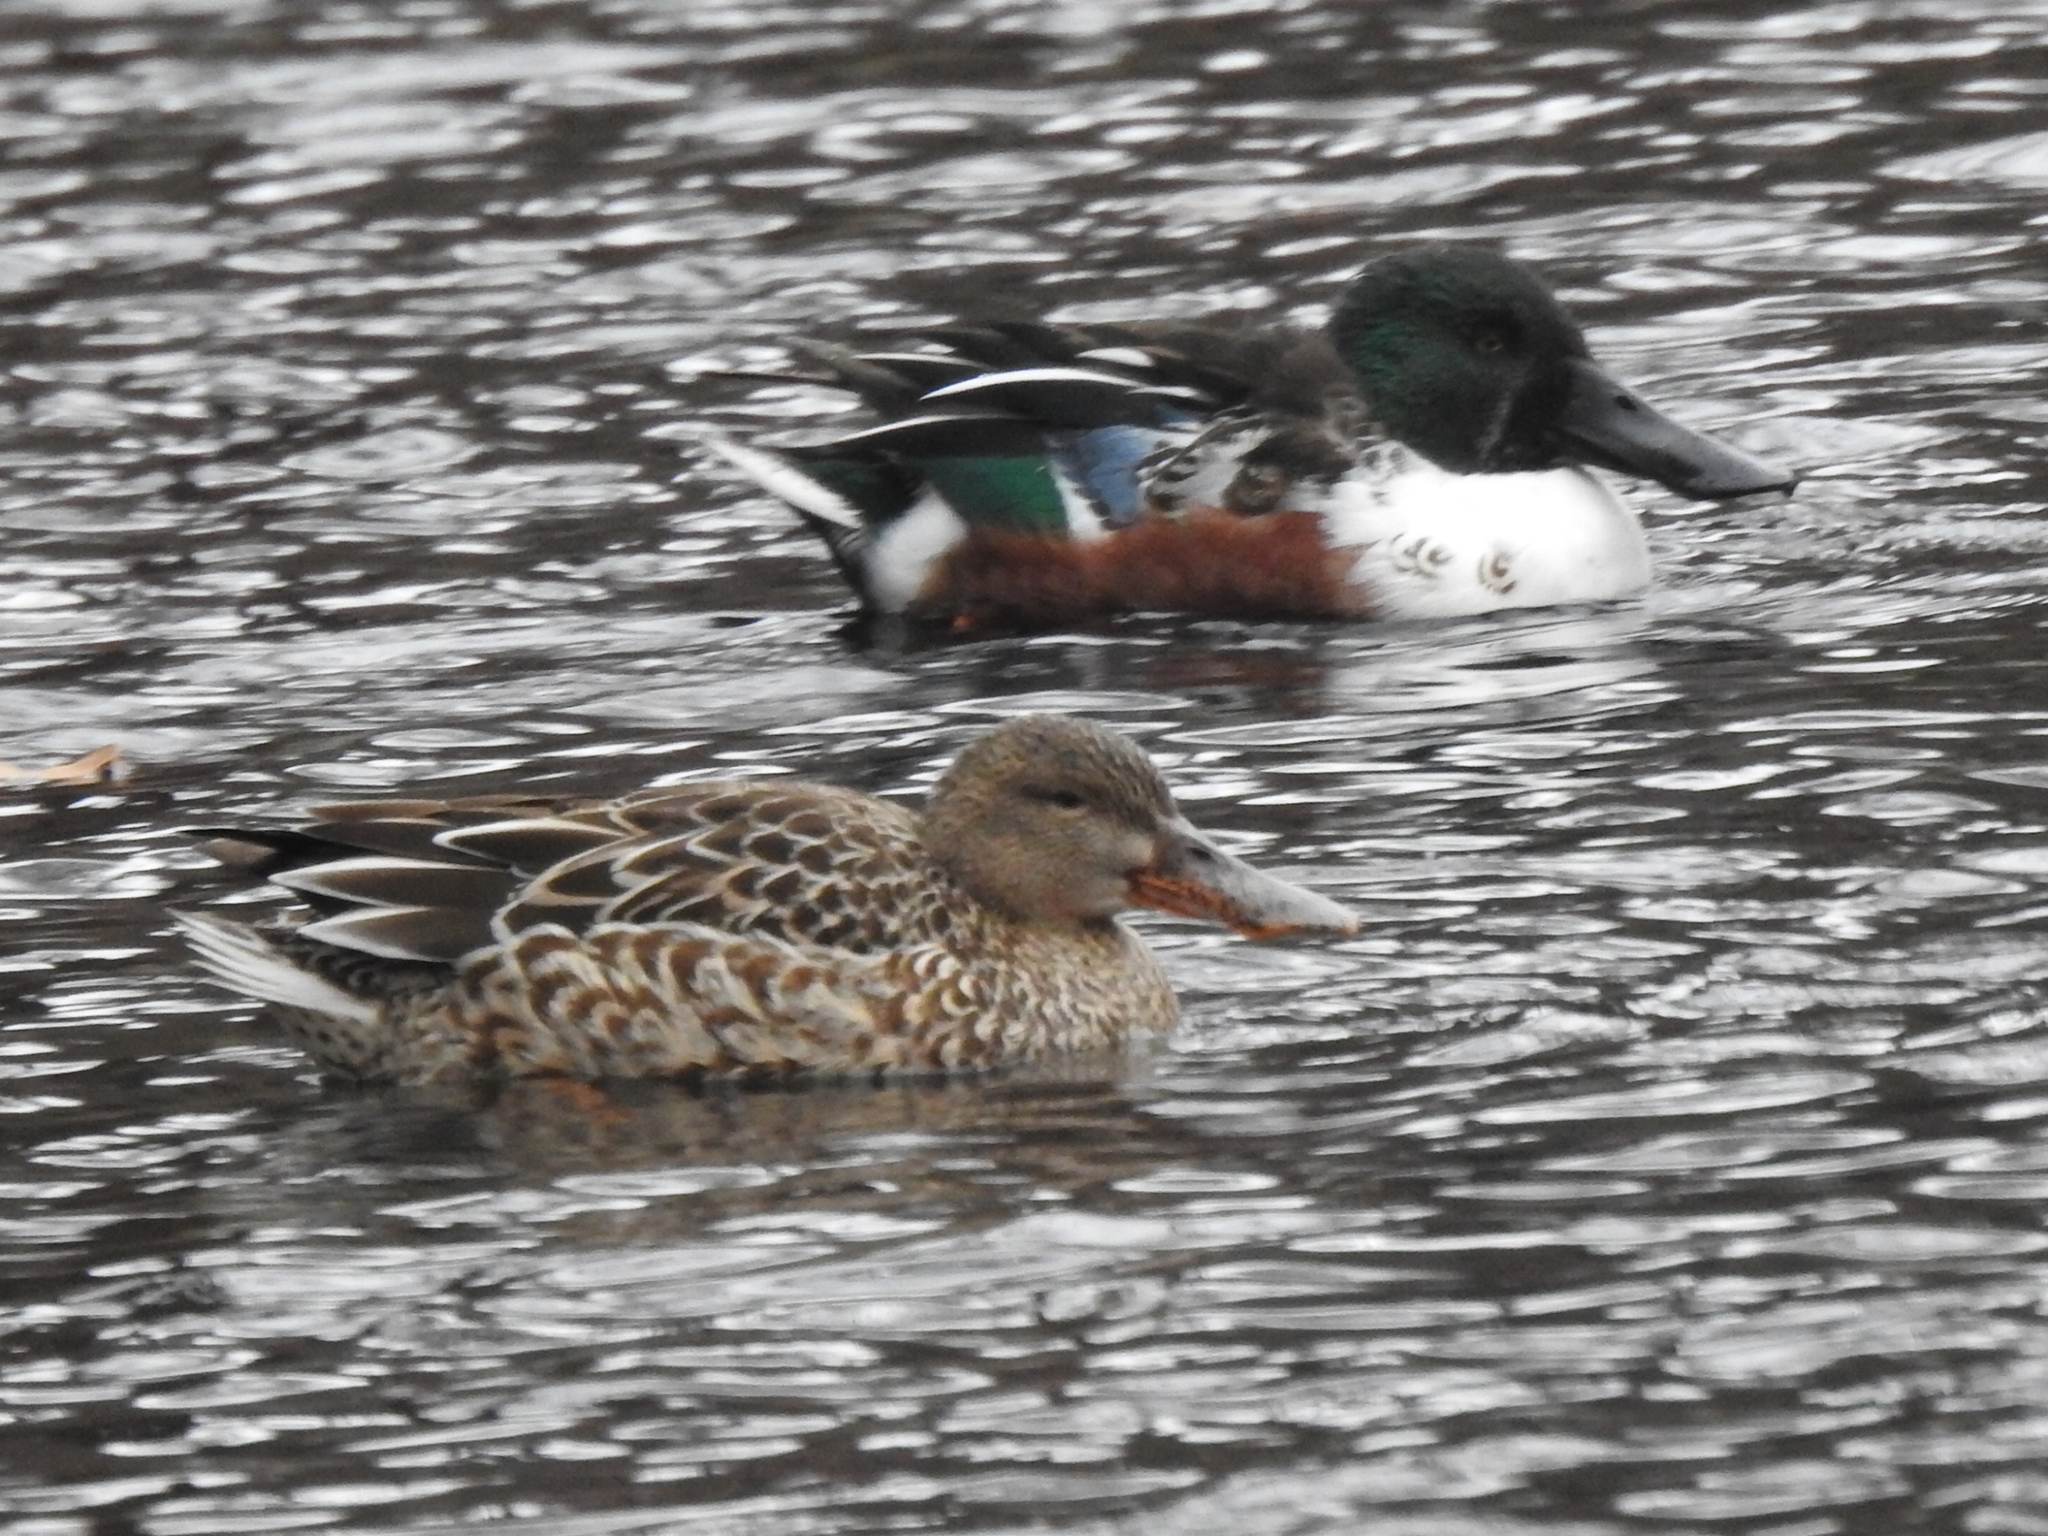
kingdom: Animalia
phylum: Chordata
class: Aves
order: Anseriformes
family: Anatidae
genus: Spatula
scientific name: Spatula clypeata
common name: Northern shoveler
